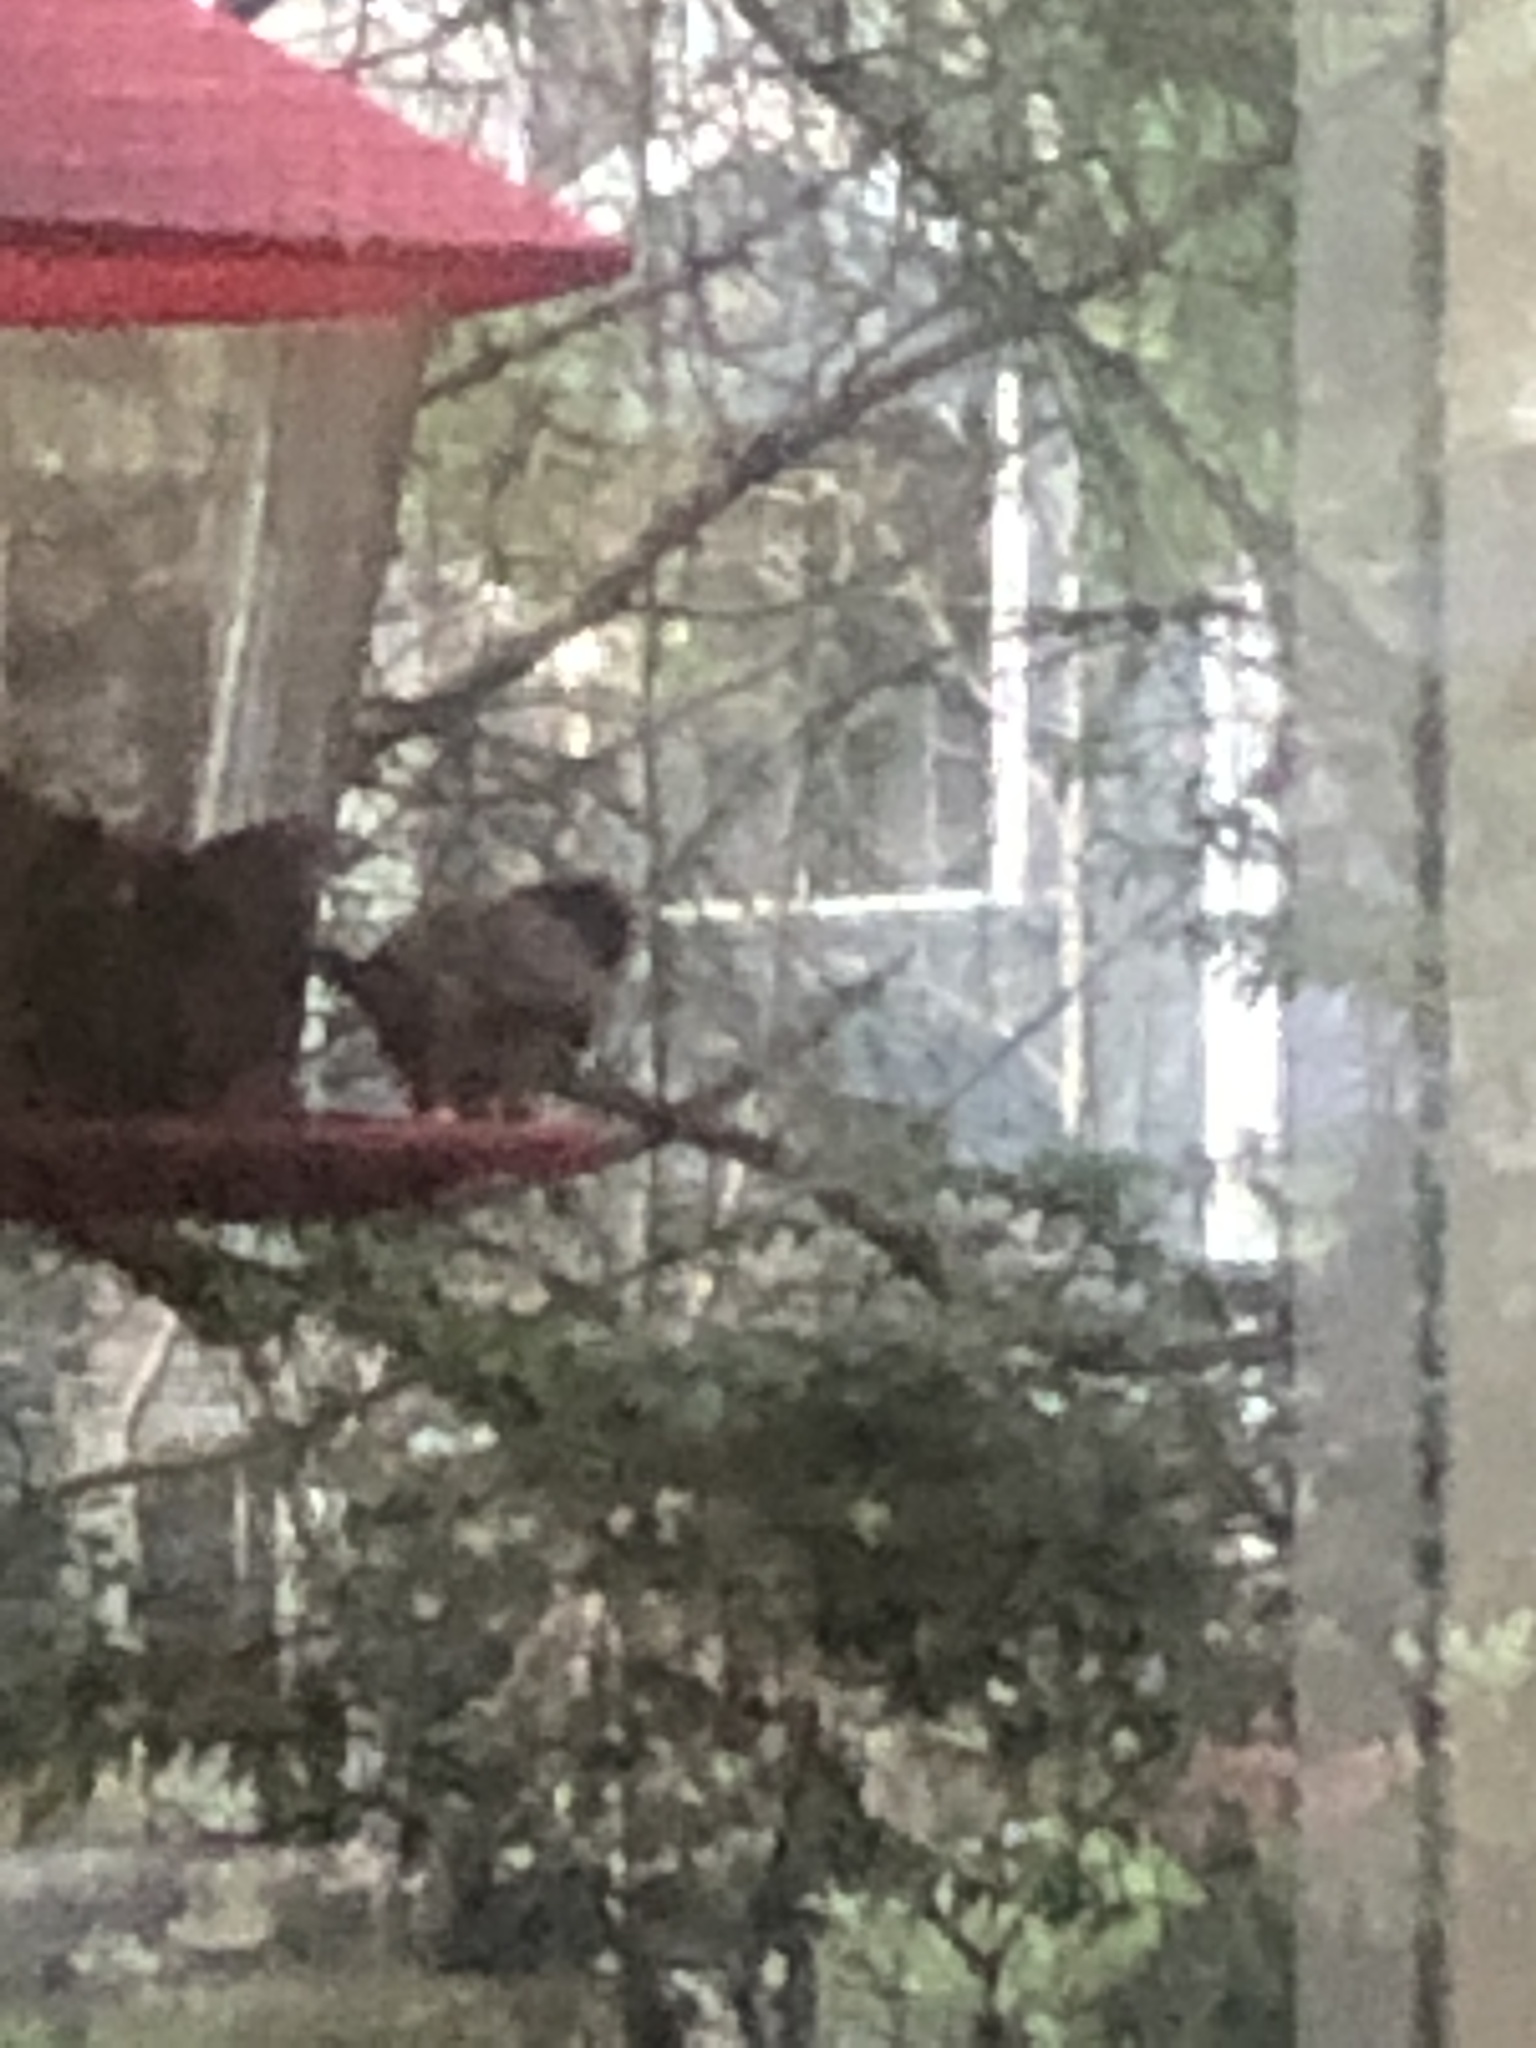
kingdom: Animalia
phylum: Chordata
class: Aves
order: Passeriformes
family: Passerellidae
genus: Junco
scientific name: Junco hyemalis
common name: Dark-eyed junco
